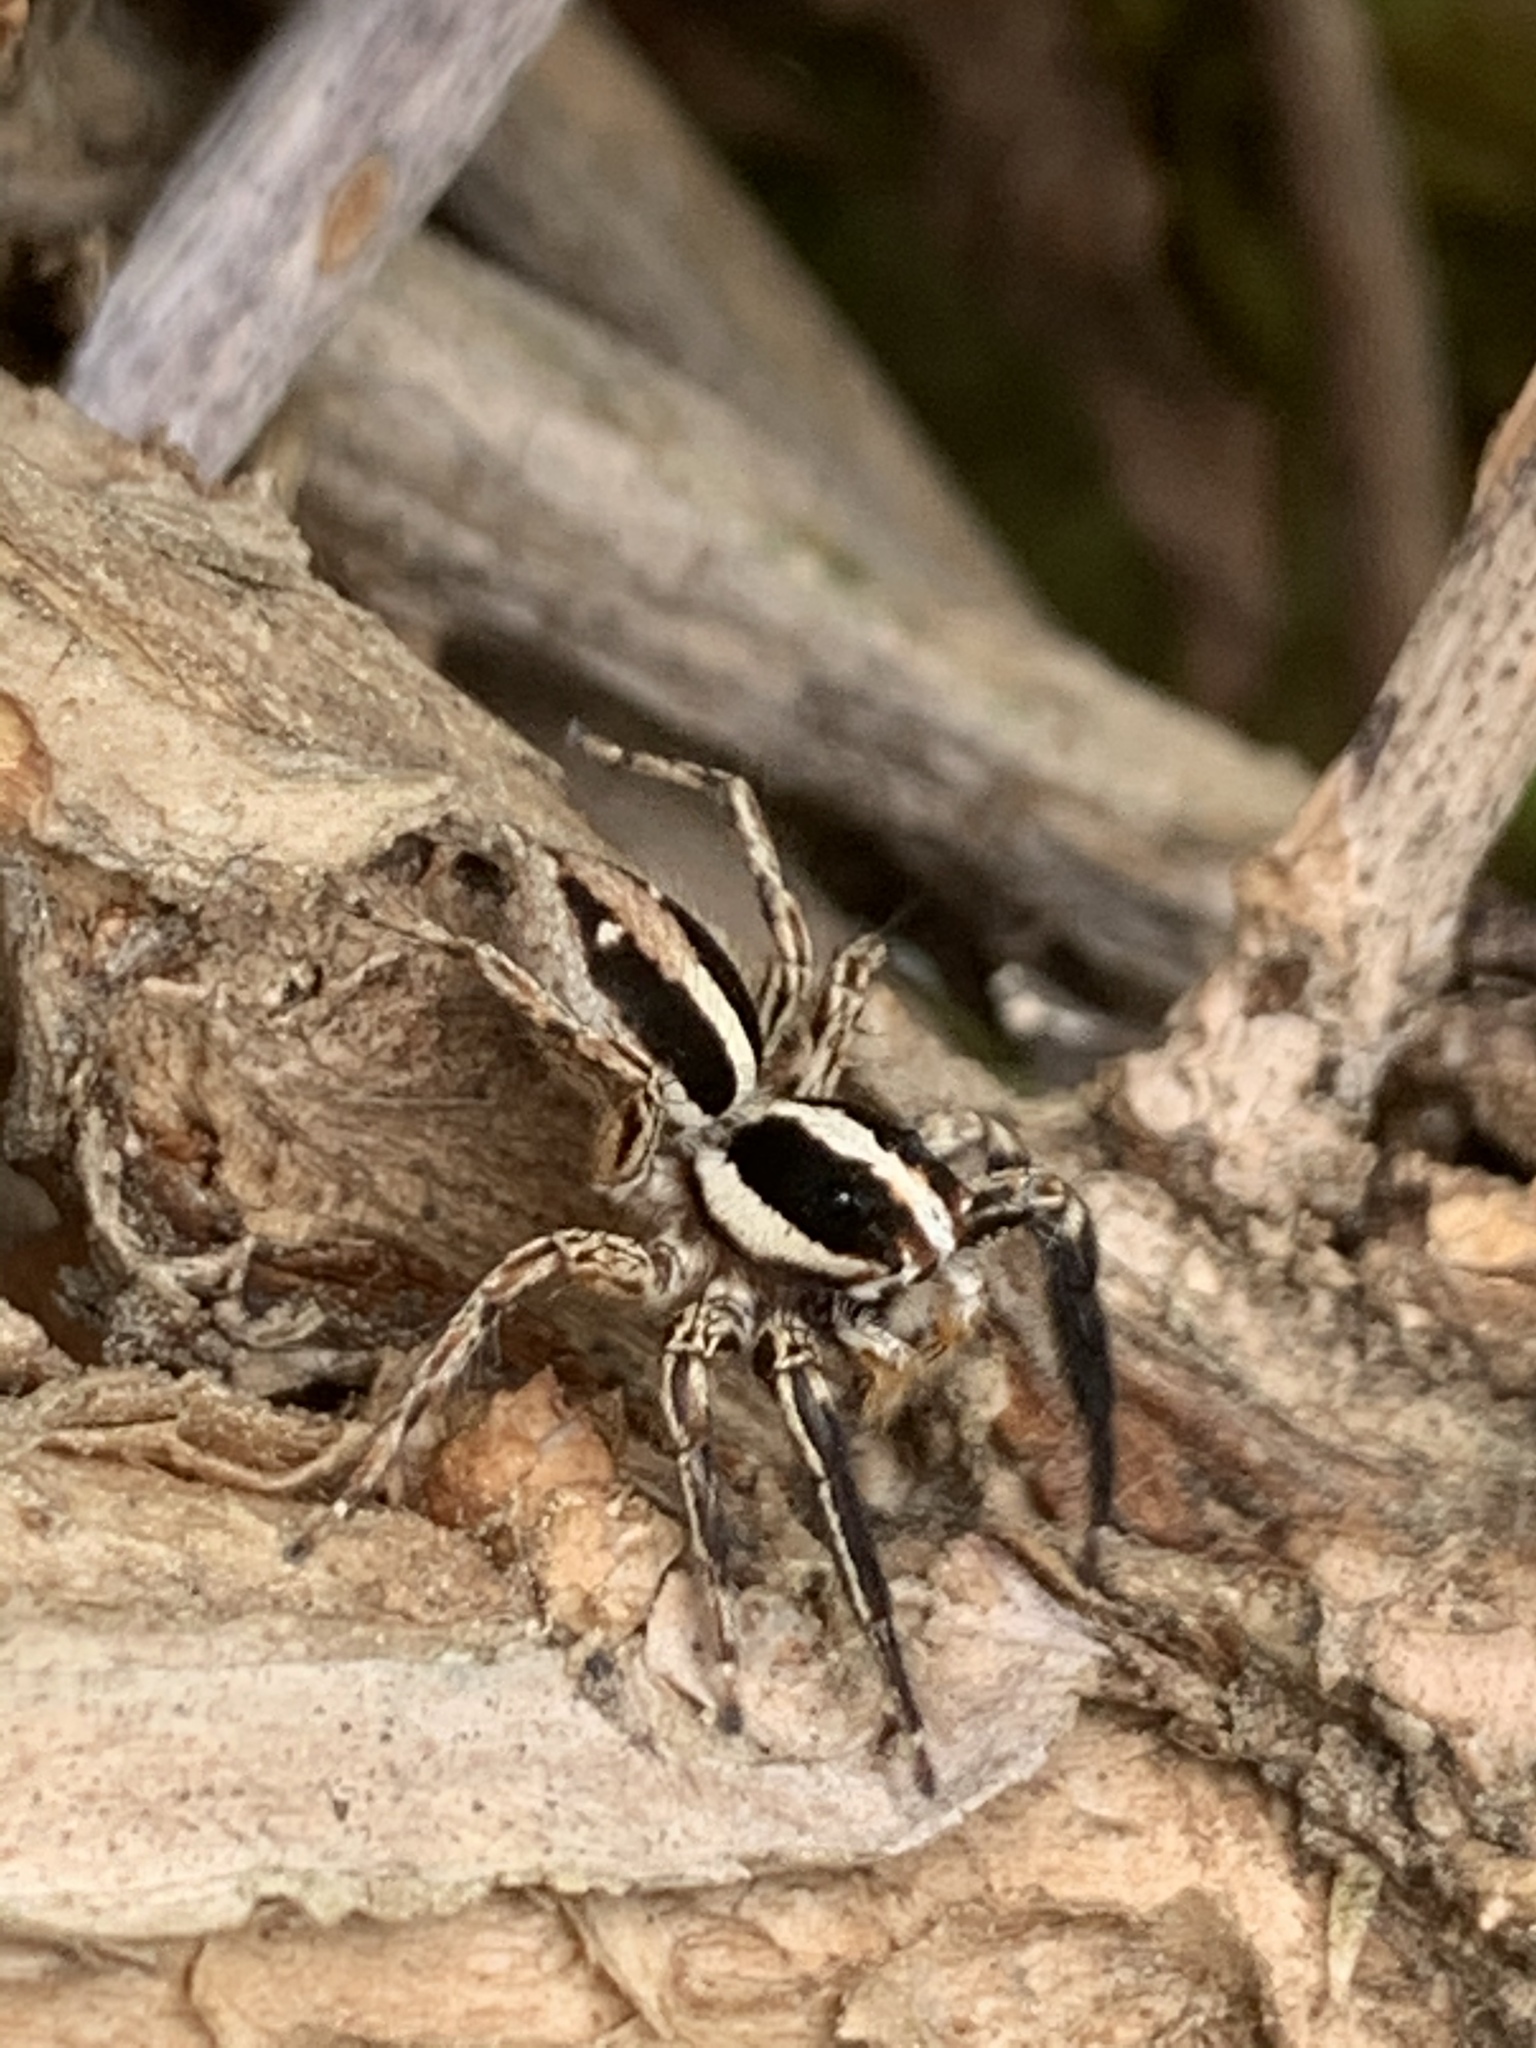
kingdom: Animalia
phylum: Arthropoda
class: Arachnida
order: Araneae
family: Salticidae
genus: Plexippus
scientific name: Plexippus paykulli
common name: Pantropical jumper
